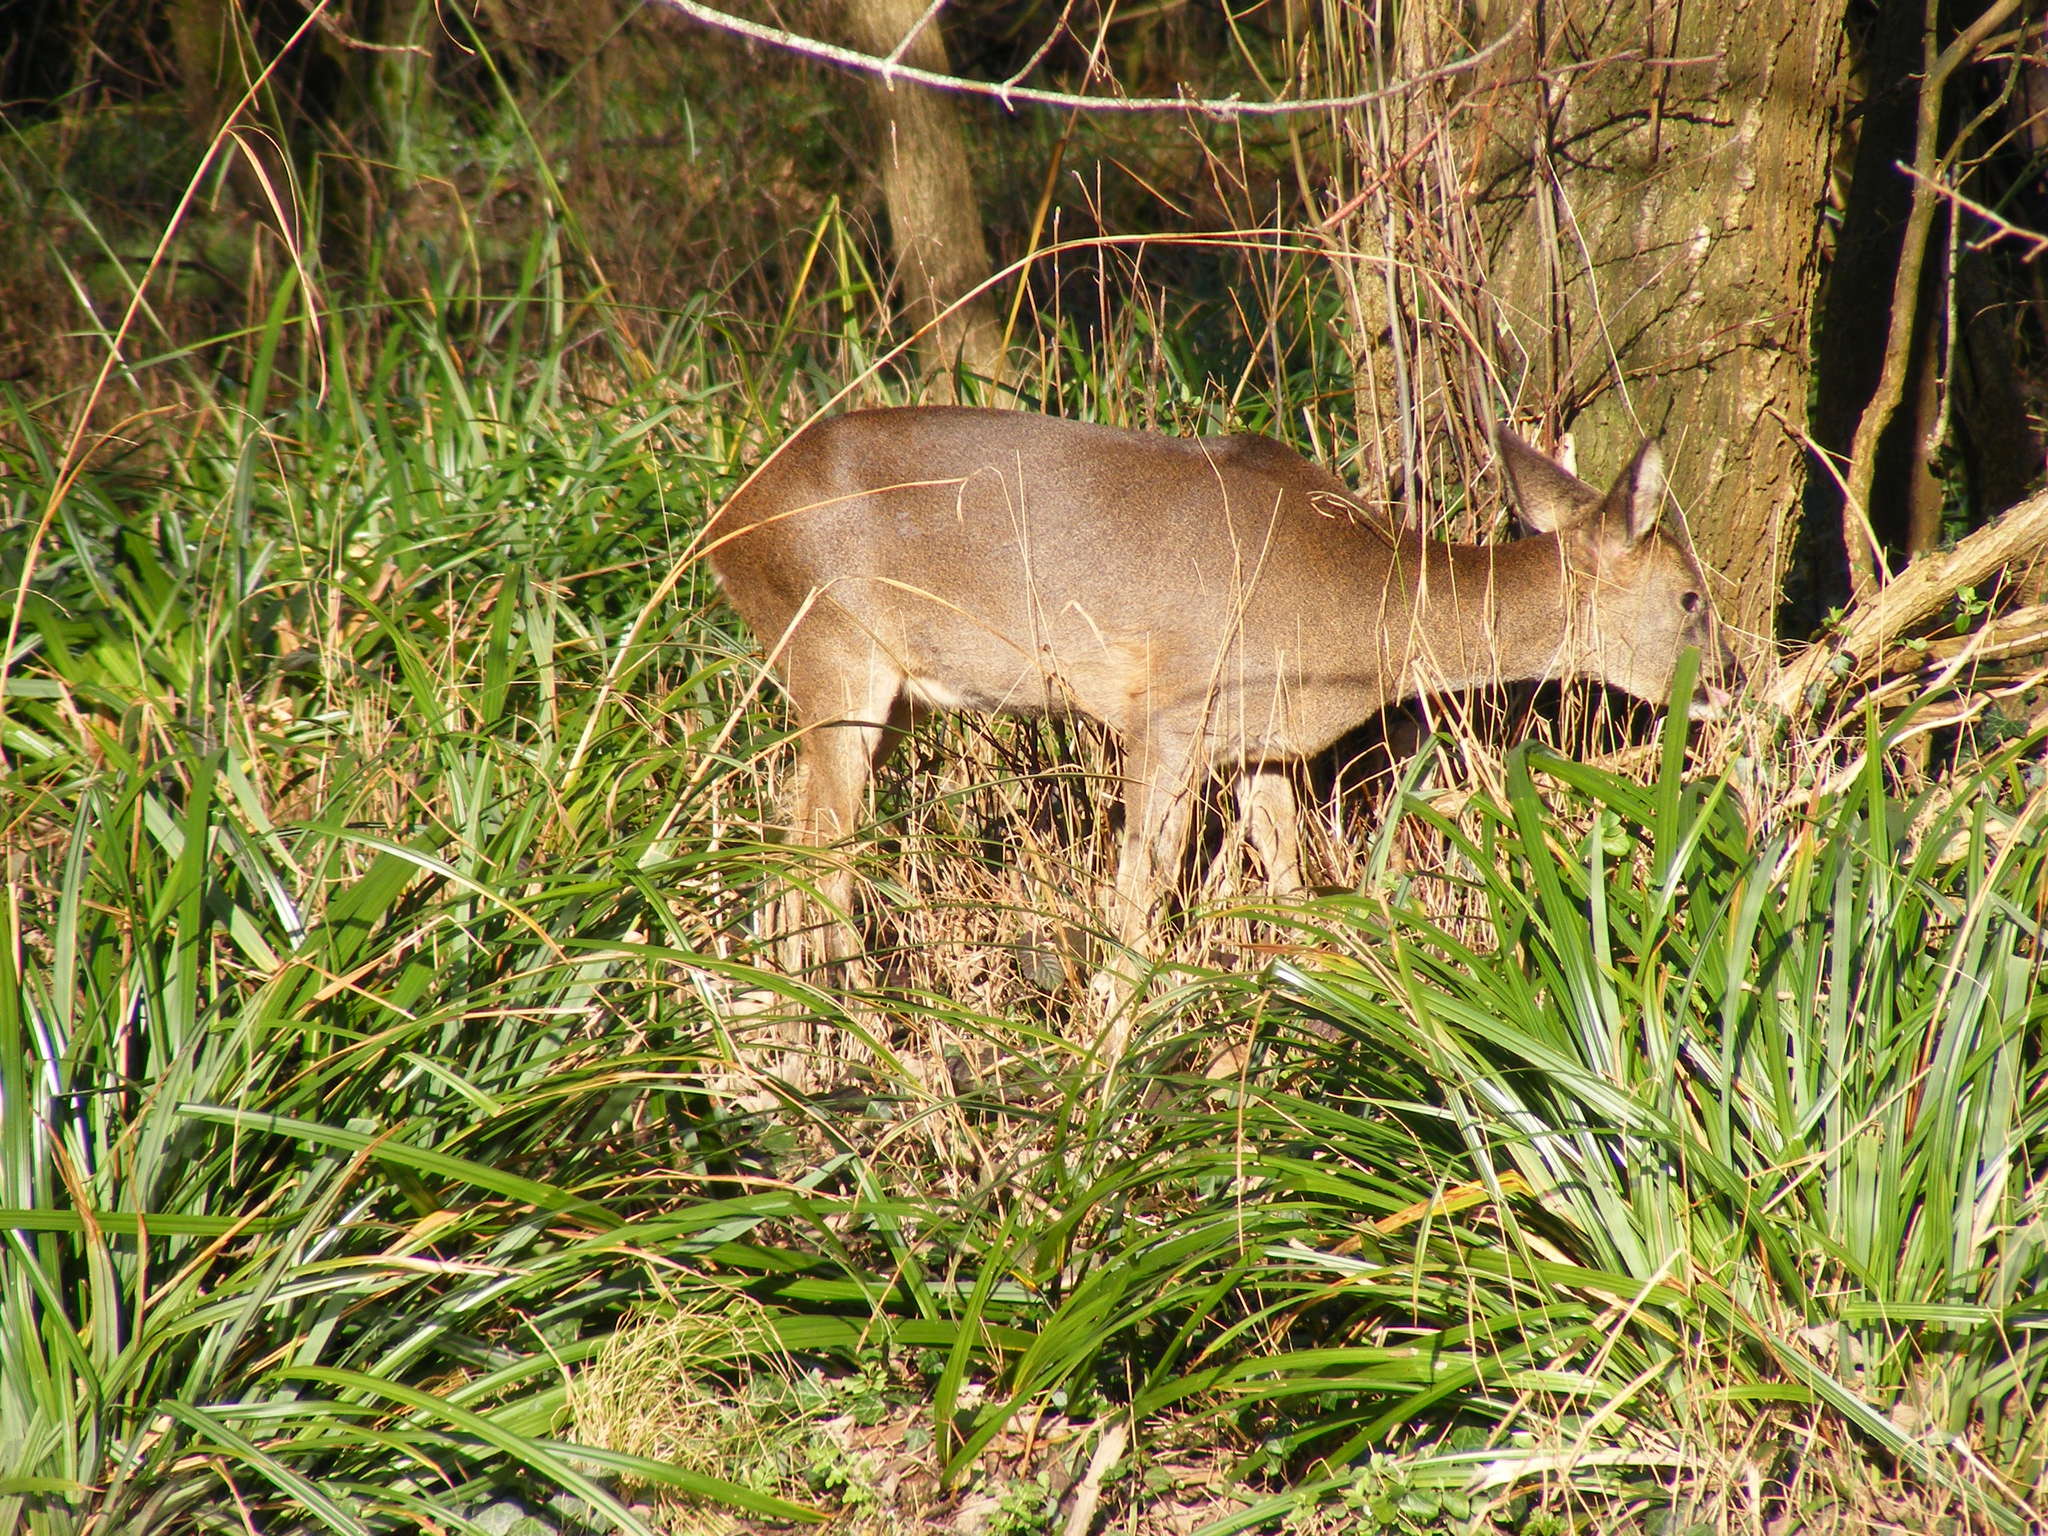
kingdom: Animalia
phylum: Chordata
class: Mammalia
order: Artiodactyla
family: Cervidae
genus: Capreolus
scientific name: Capreolus capreolus
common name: Western roe deer
